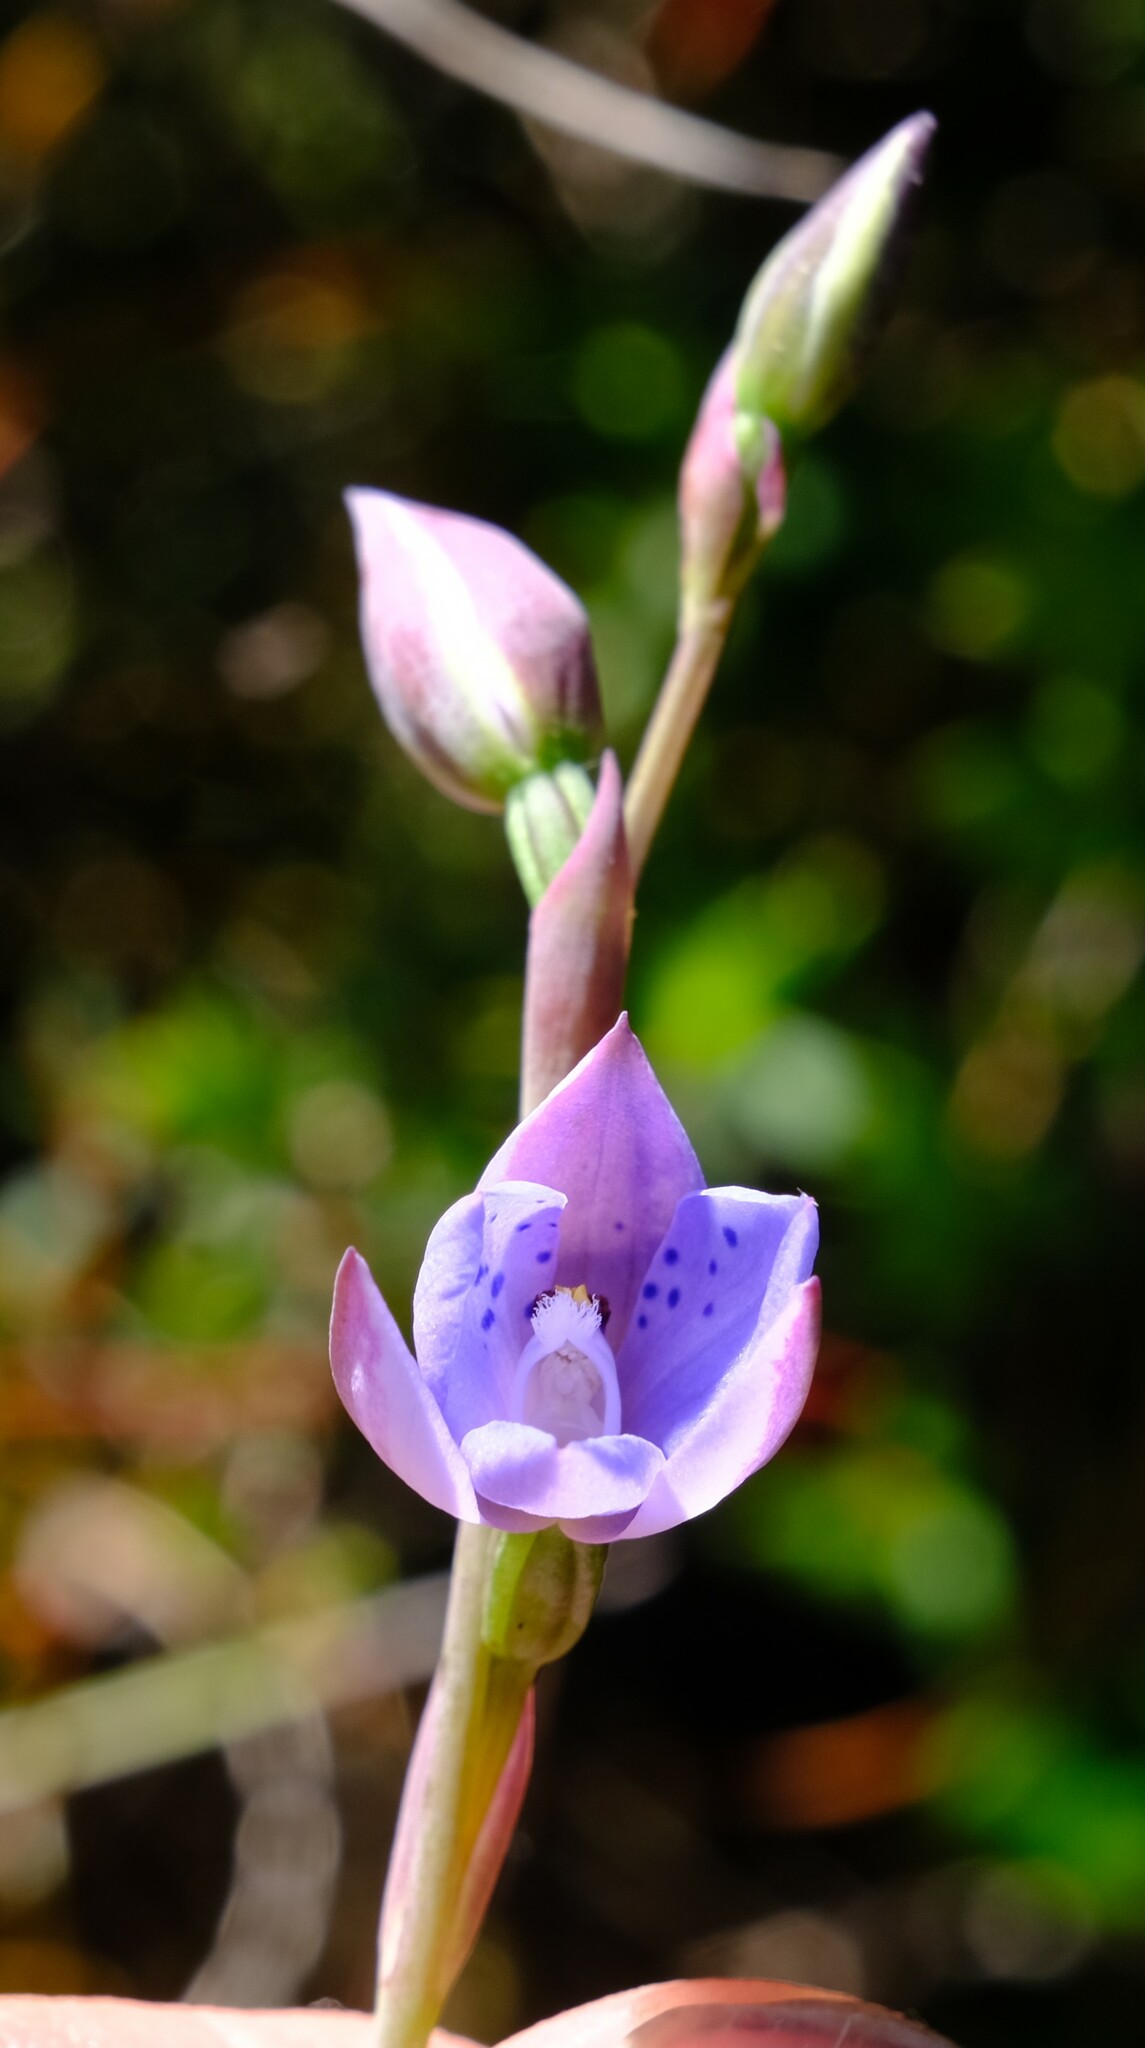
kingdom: Plantae
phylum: Tracheophyta
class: Liliopsida
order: Asparagales
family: Orchidaceae
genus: Thelymitra
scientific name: Thelymitra ixioides
